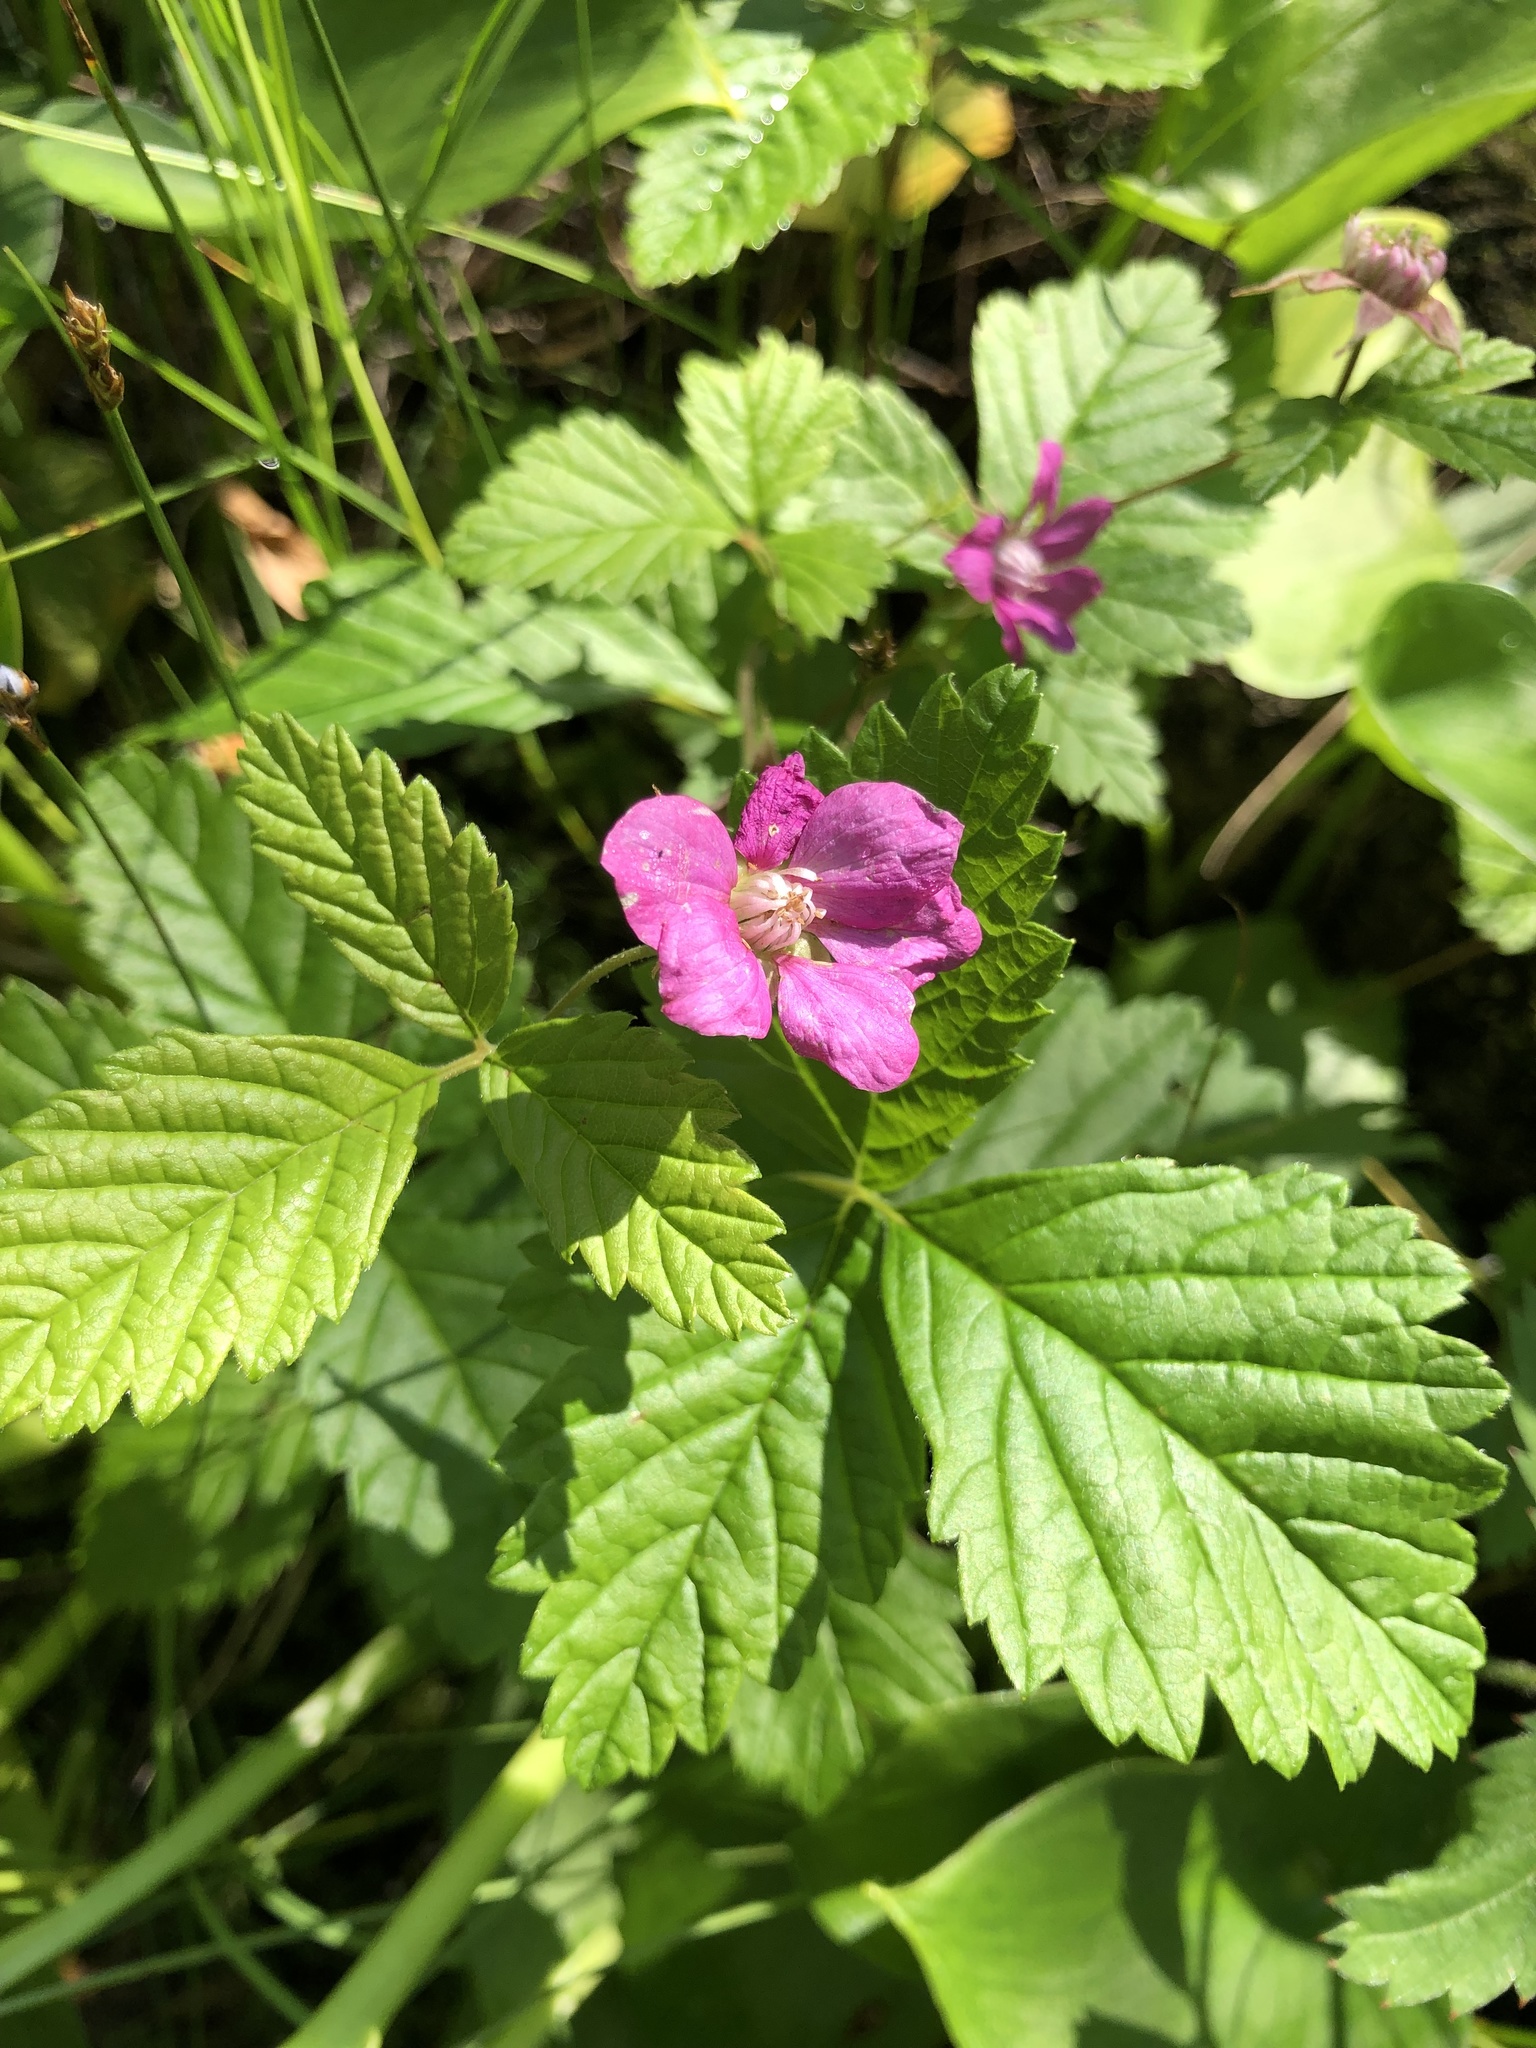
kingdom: Plantae
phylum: Tracheophyta
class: Magnoliopsida
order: Rosales
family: Rosaceae
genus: Rubus
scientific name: Rubus arcticus
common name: Arctic bramble
